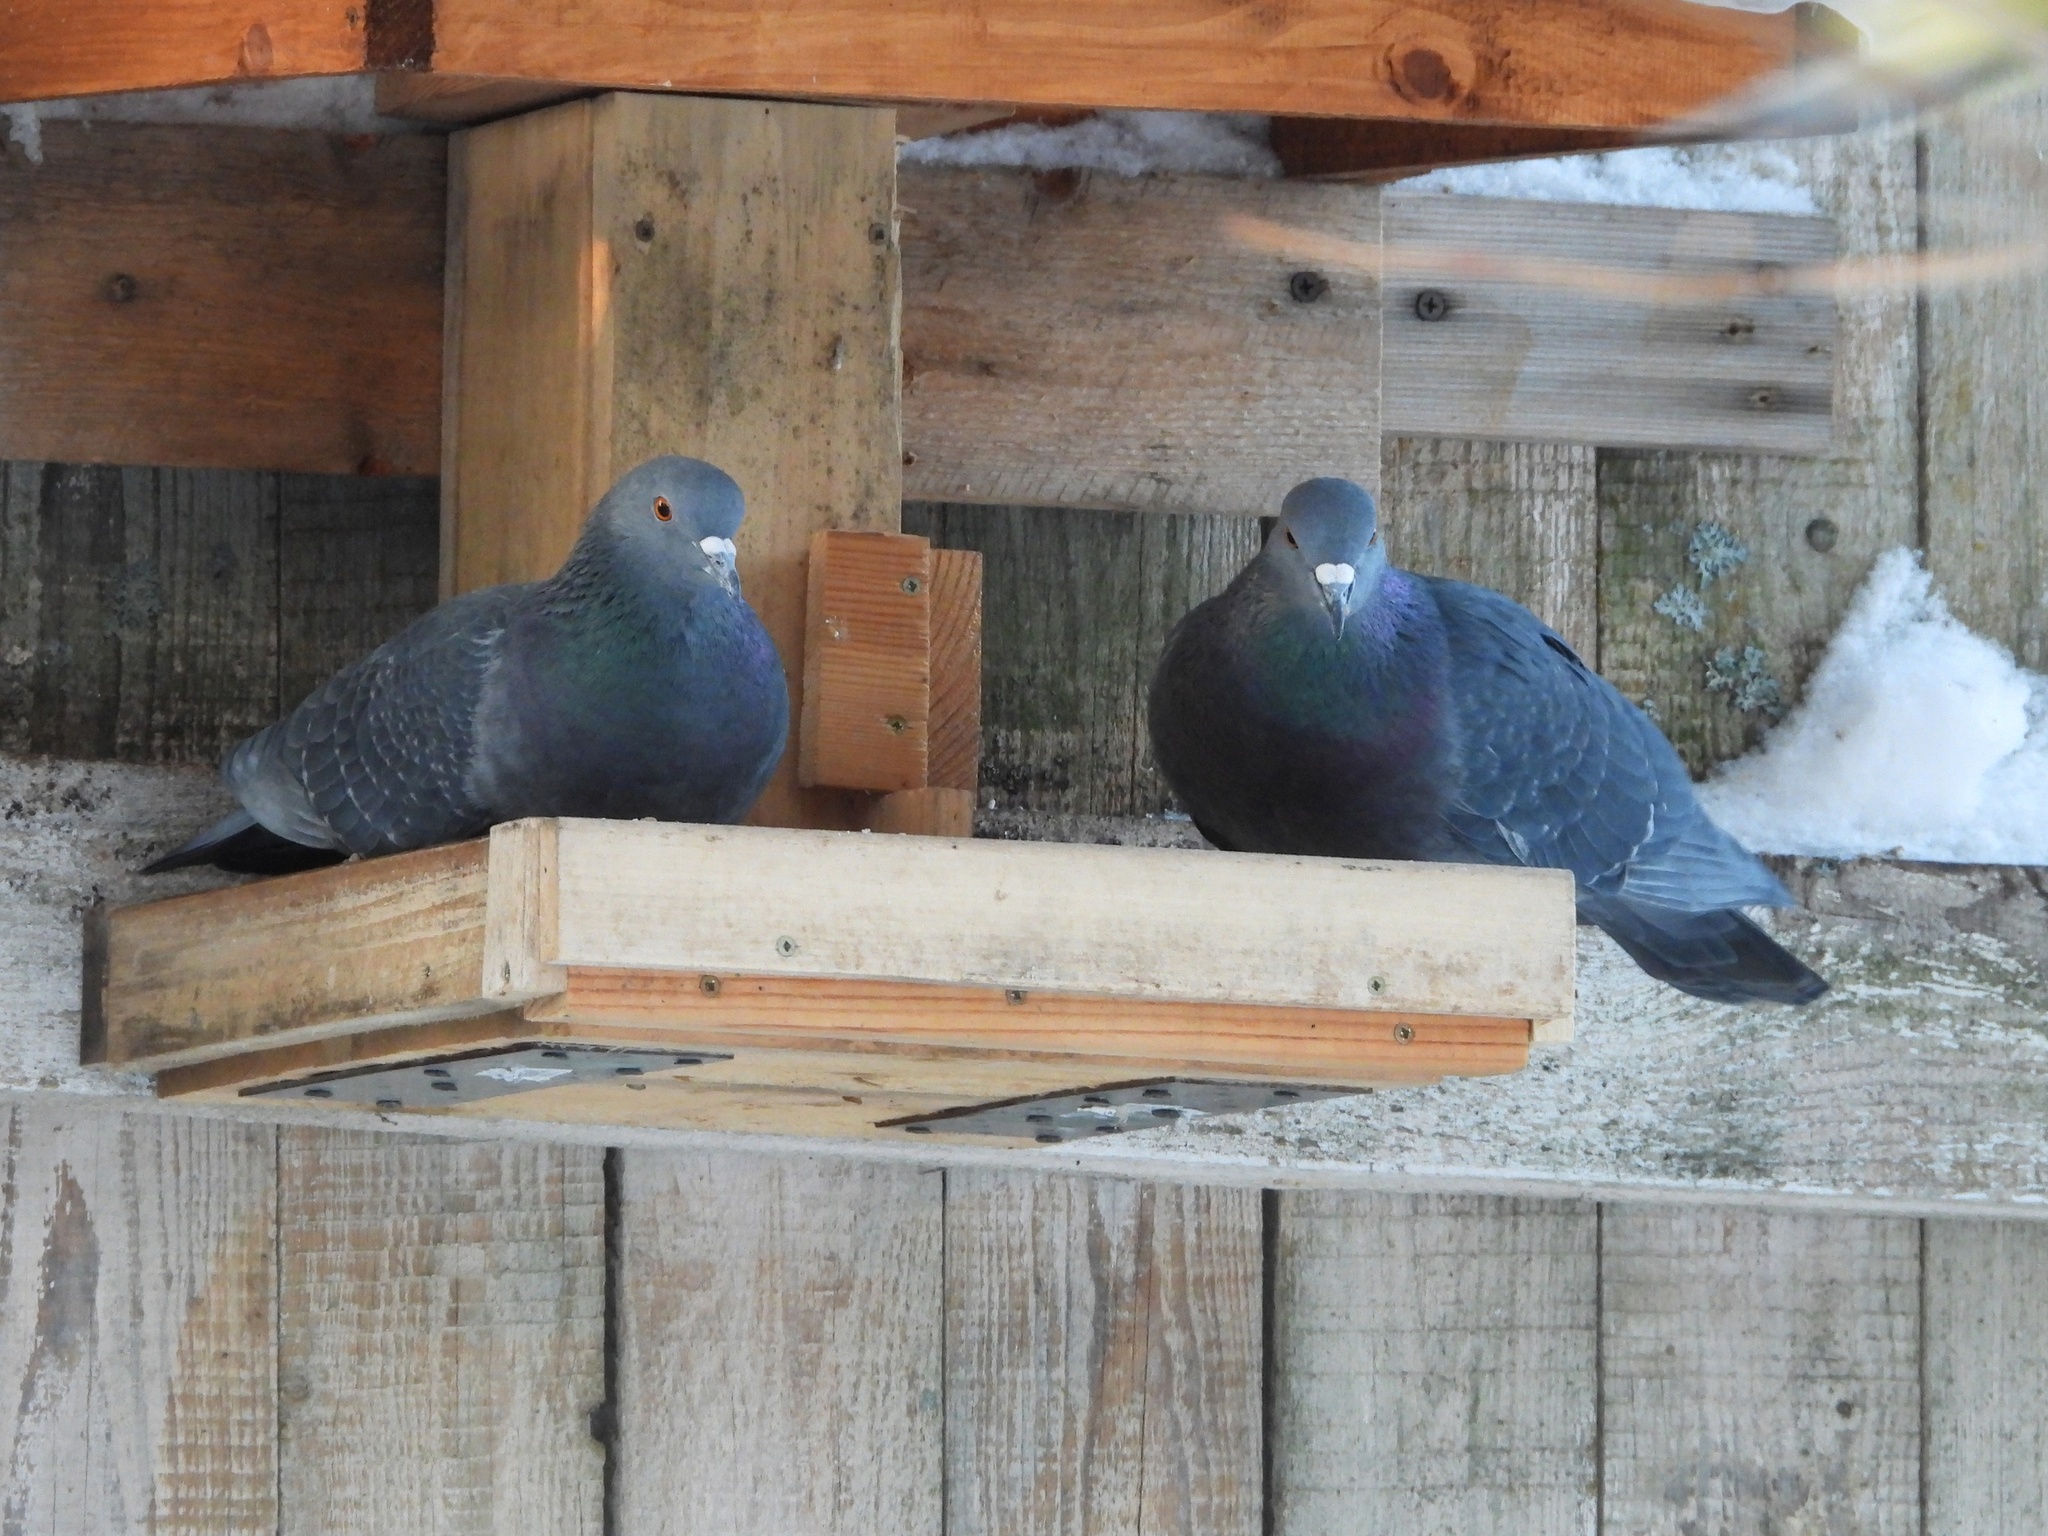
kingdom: Animalia
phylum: Chordata
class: Aves
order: Columbiformes
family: Columbidae
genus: Columba
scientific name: Columba livia
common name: Rock pigeon
